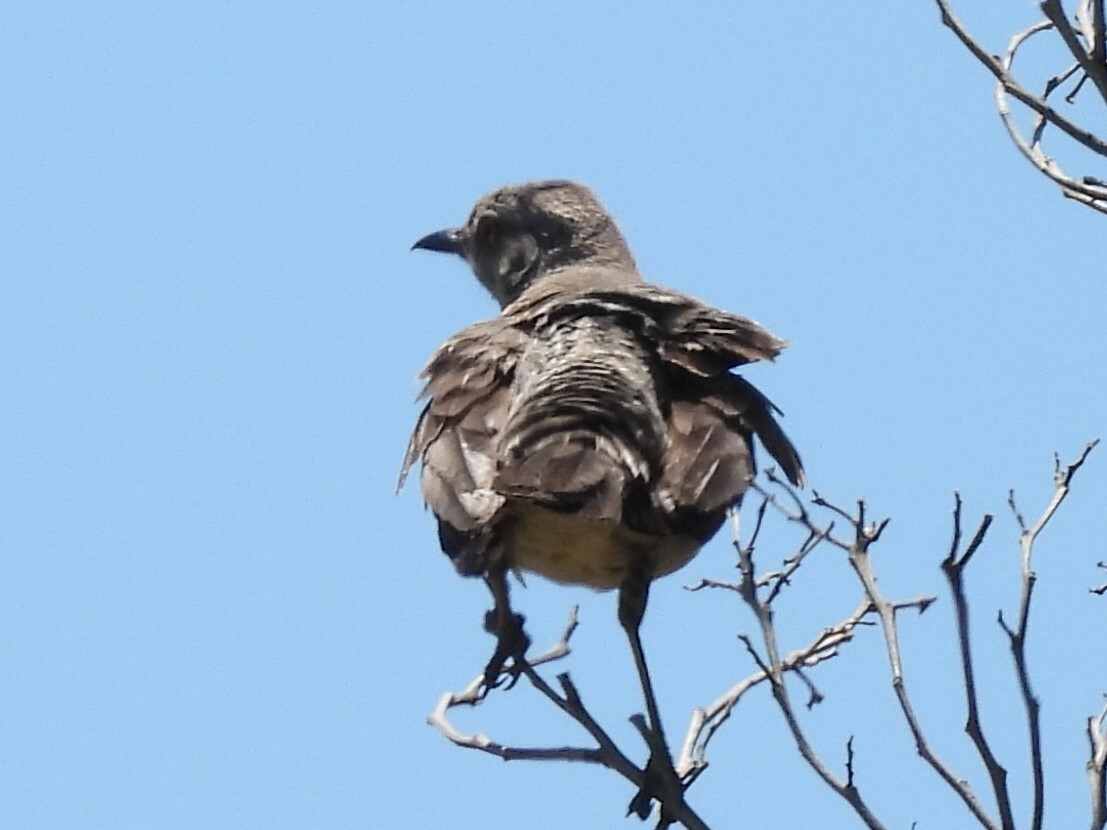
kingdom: Animalia
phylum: Chordata
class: Aves
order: Passeriformes
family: Mimidae
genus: Mimus
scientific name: Mimus polyglottos
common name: Northern mockingbird
